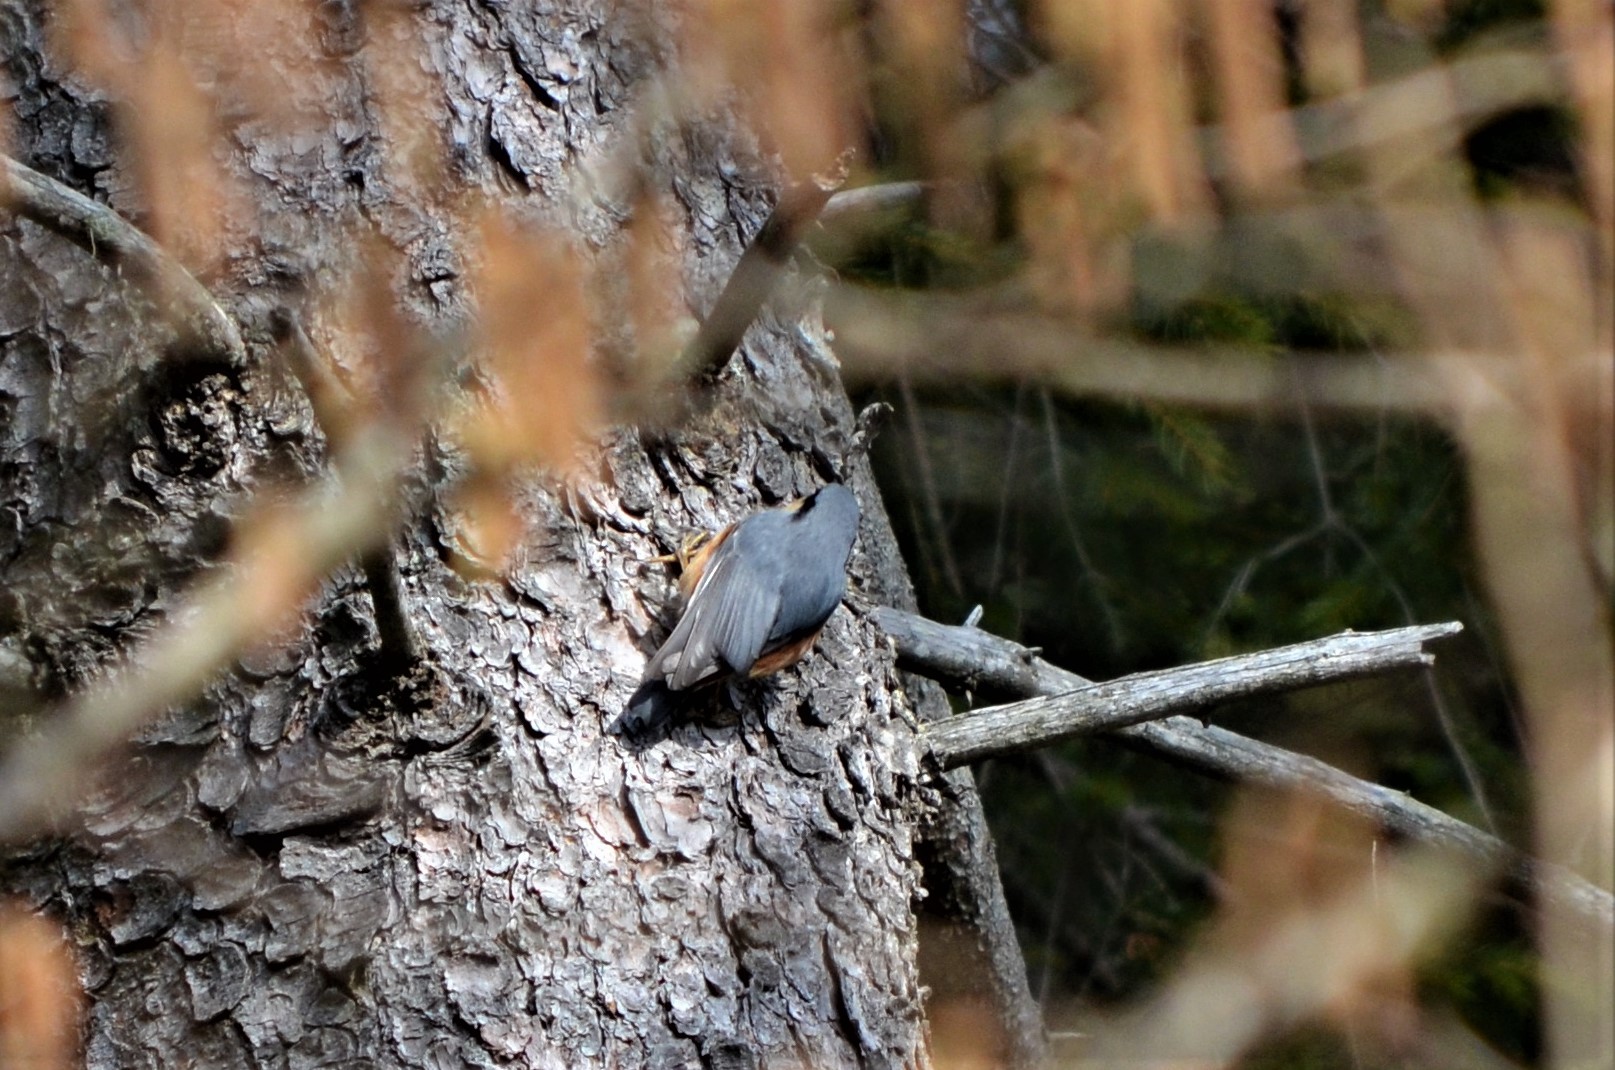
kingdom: Animalia
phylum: Chordata
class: Aves
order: Passeriformes
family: Sittidae
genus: Sitta
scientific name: Sitta europaea
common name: Eurasian nuthatch
